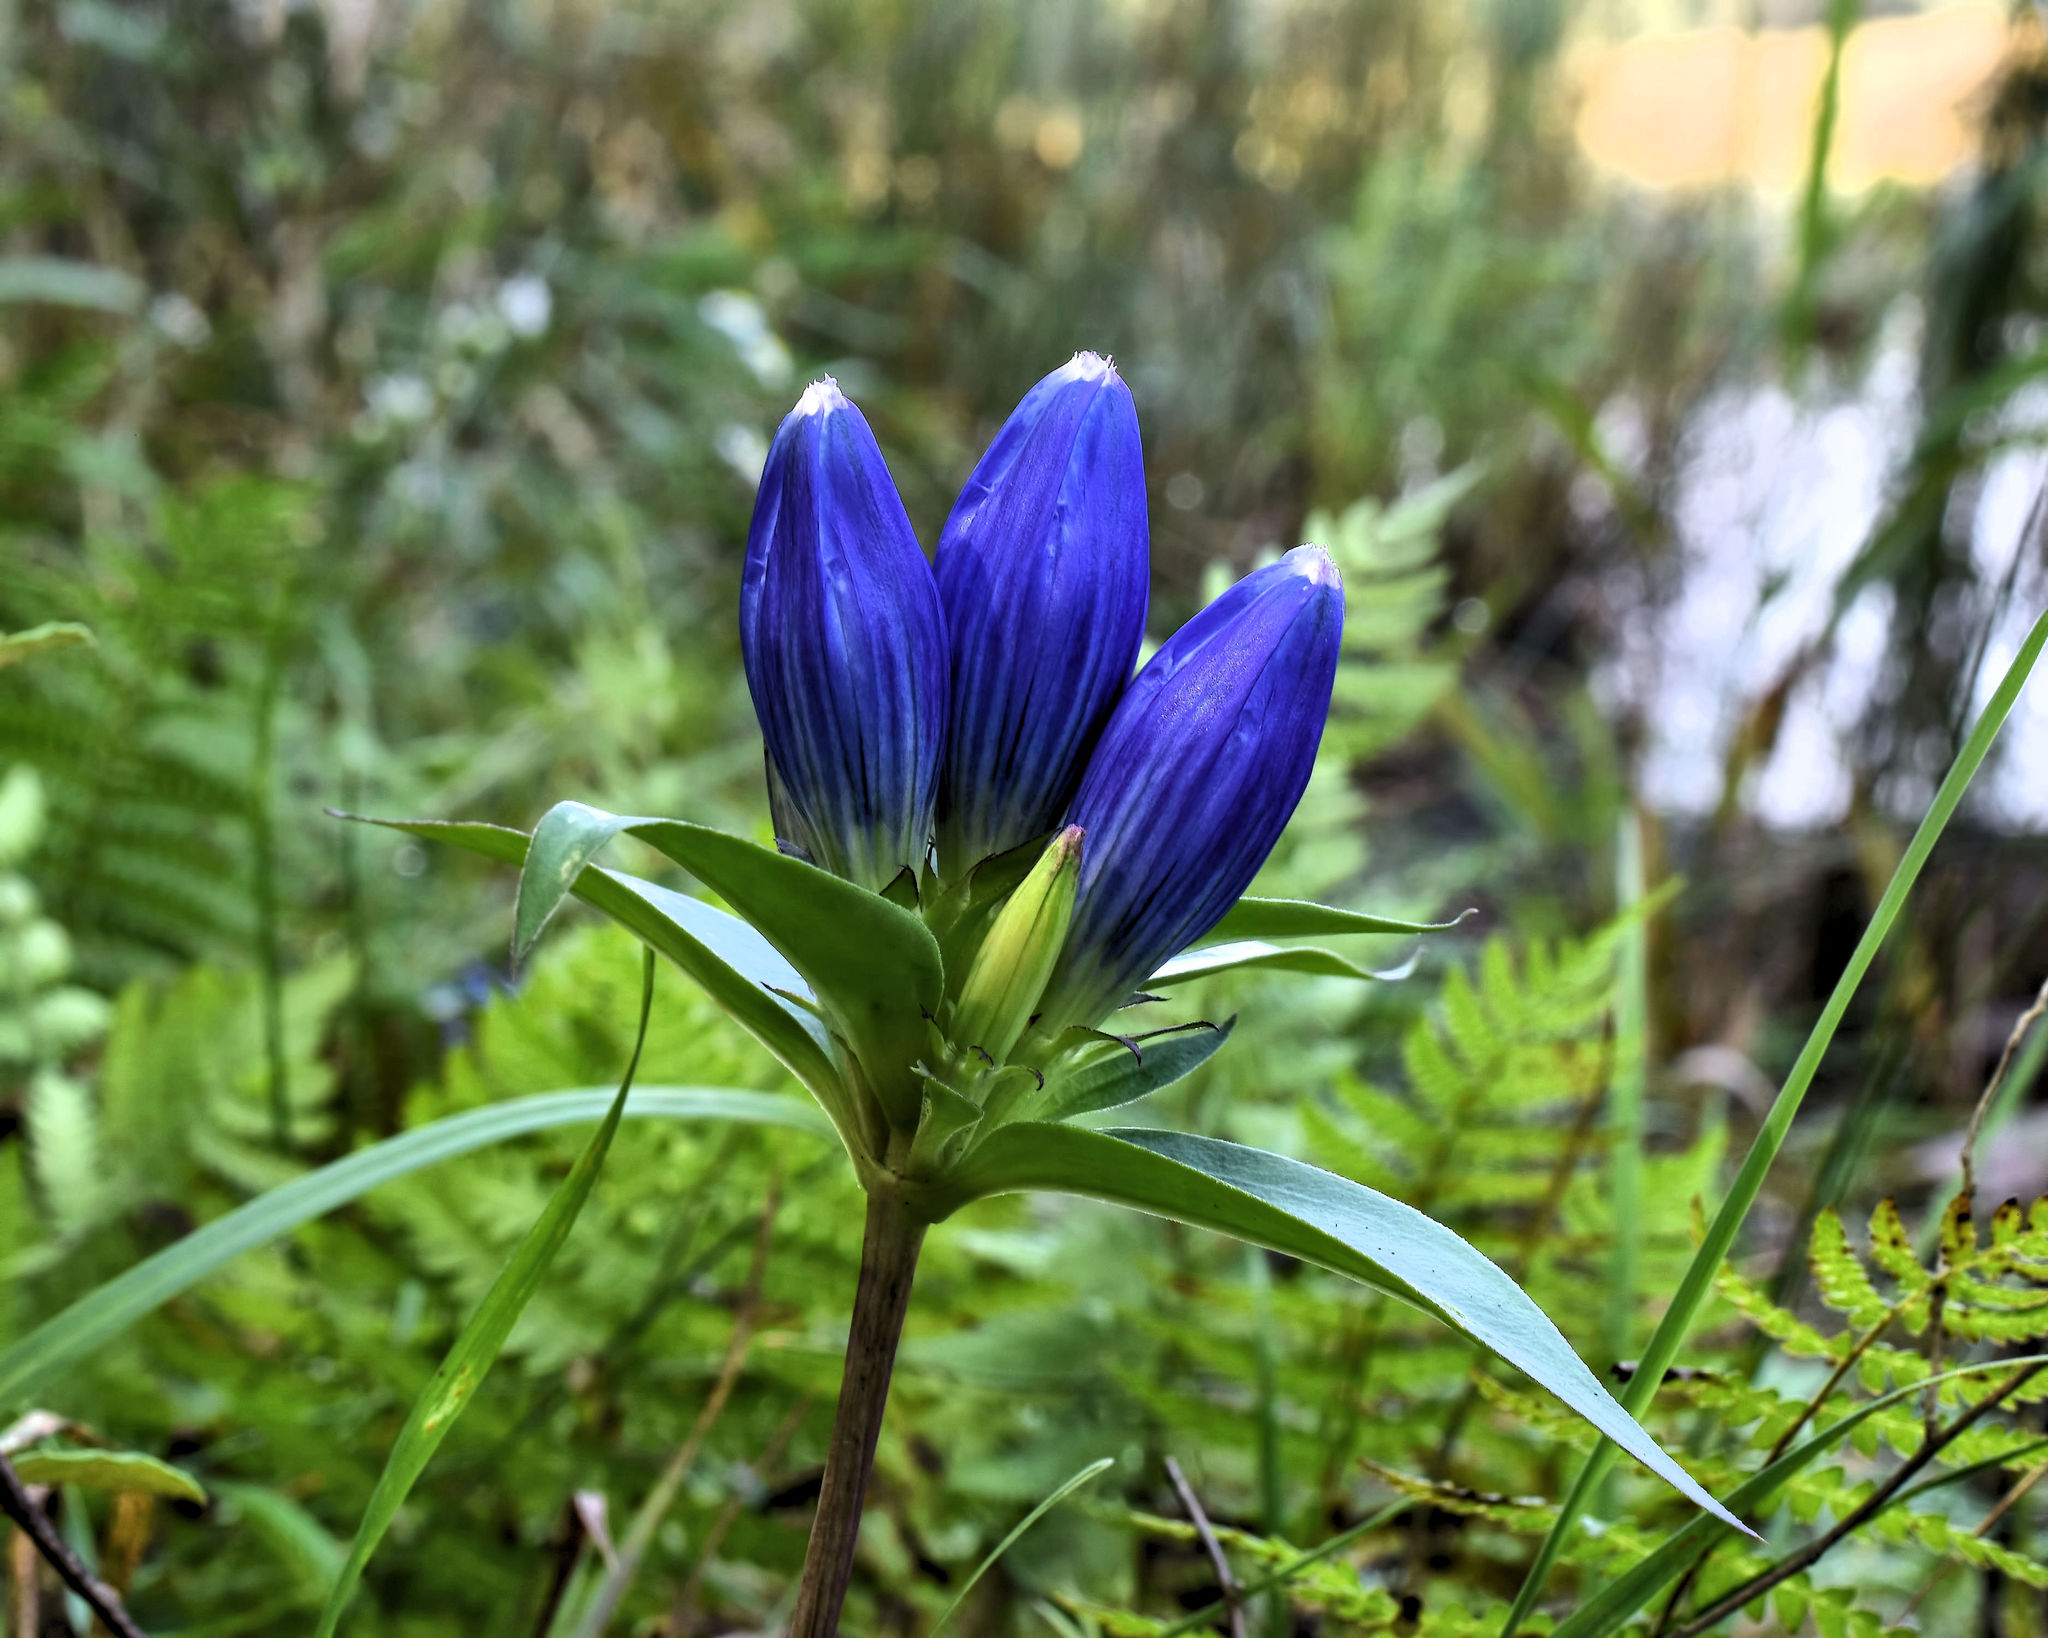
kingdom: Plantae
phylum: Tracheophyta
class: Magnoliopsida
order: Gentianales
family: Gentianaceae
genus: Gentiana
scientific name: Gentiana andrewsii
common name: Bottle gentian
